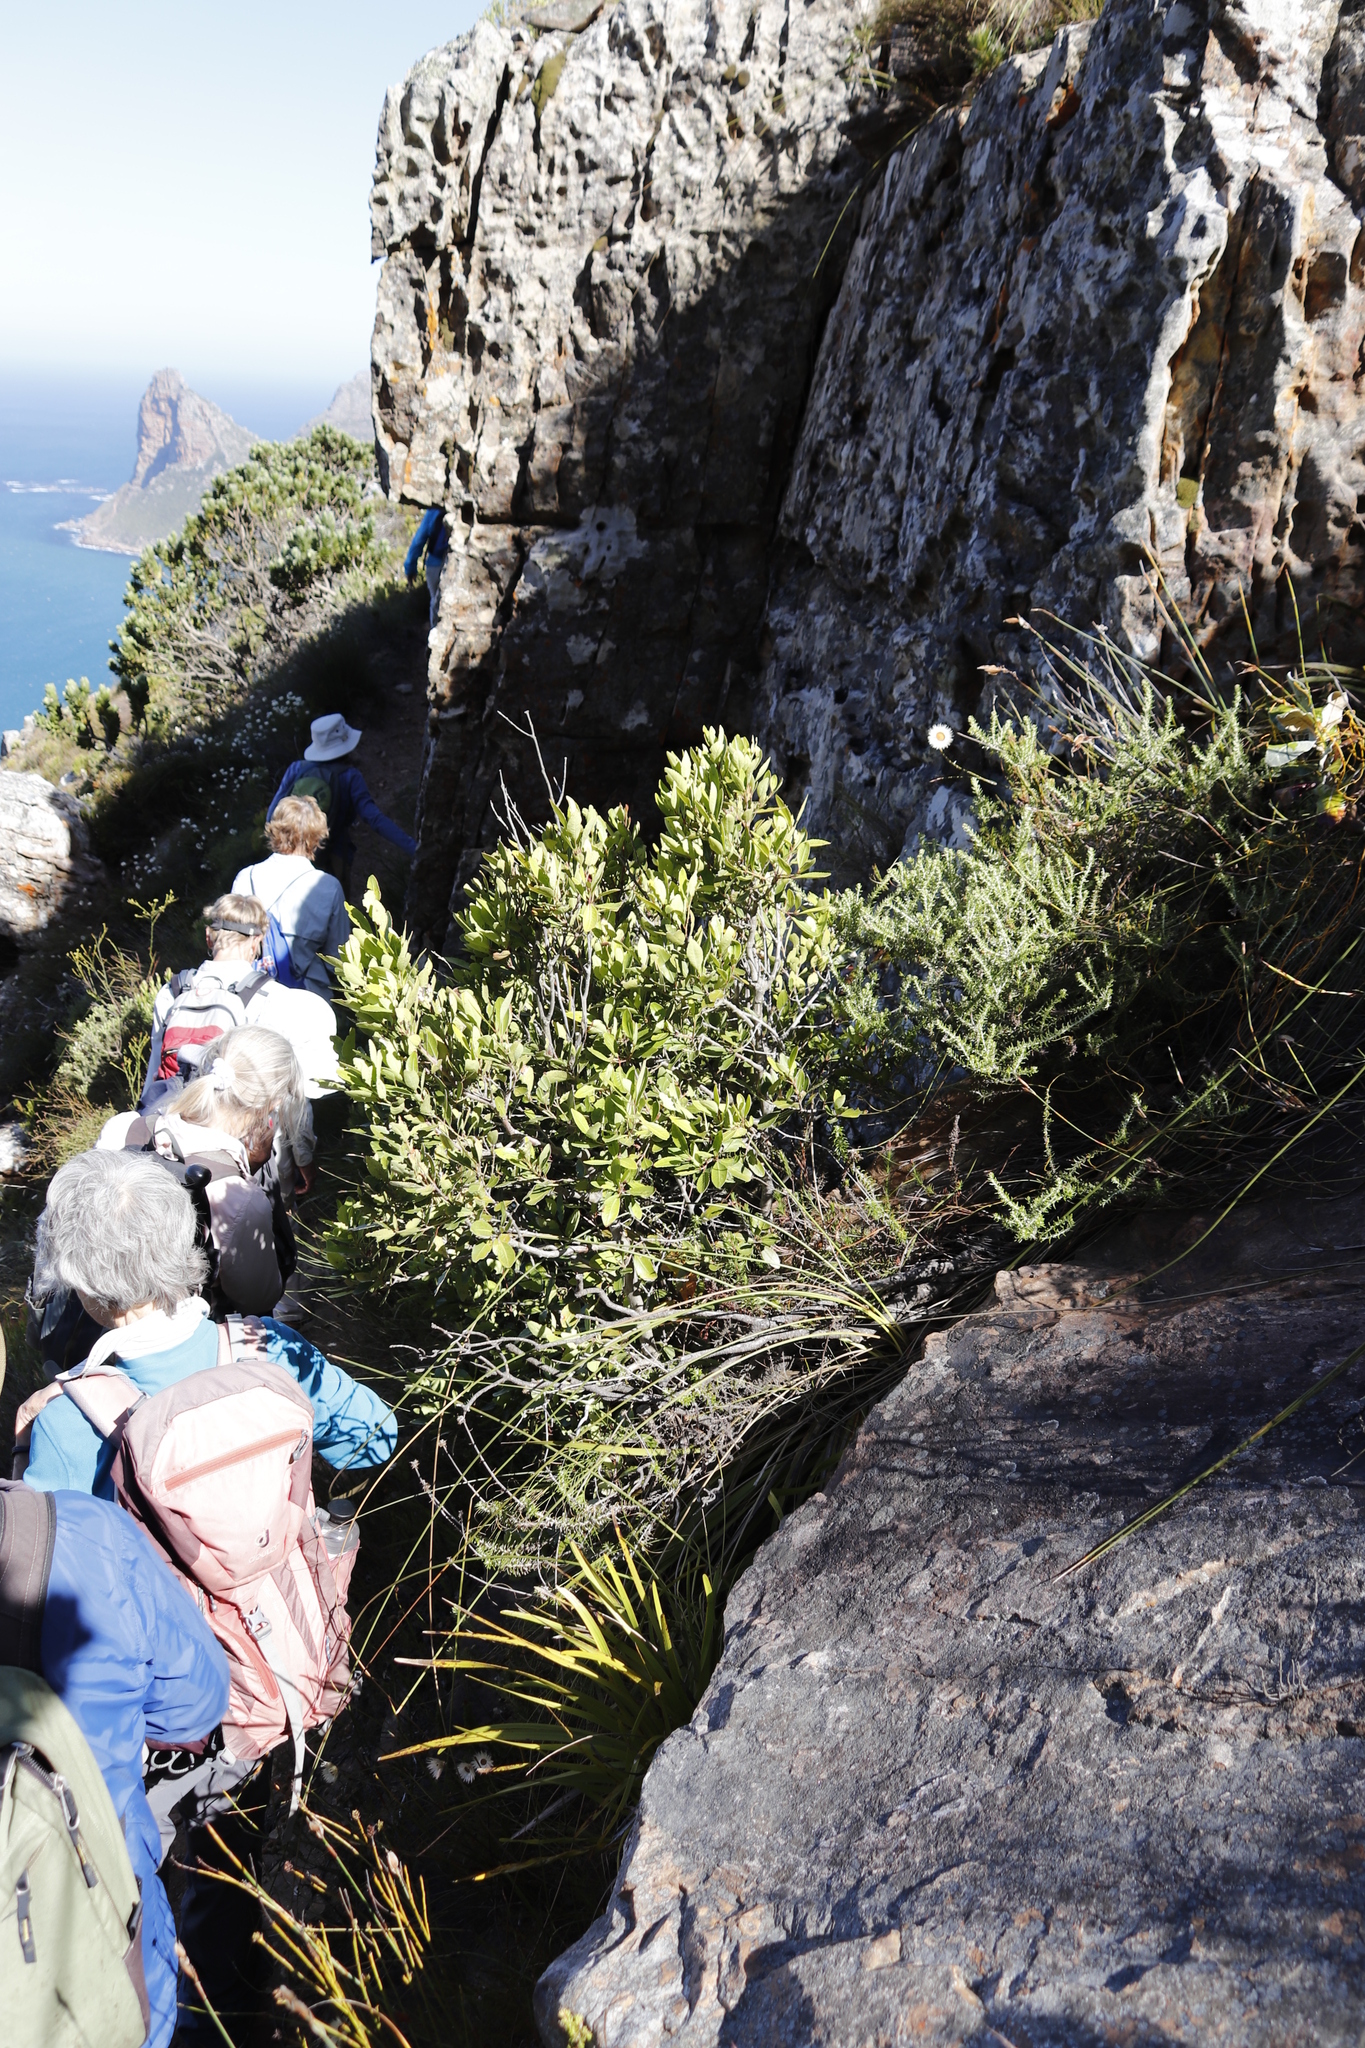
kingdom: Plantae
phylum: Tracheophyta
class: Magnoliopsida
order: Celastrales
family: Celastraceae
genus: Elaeodendron
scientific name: Elaeodendron schinoides
